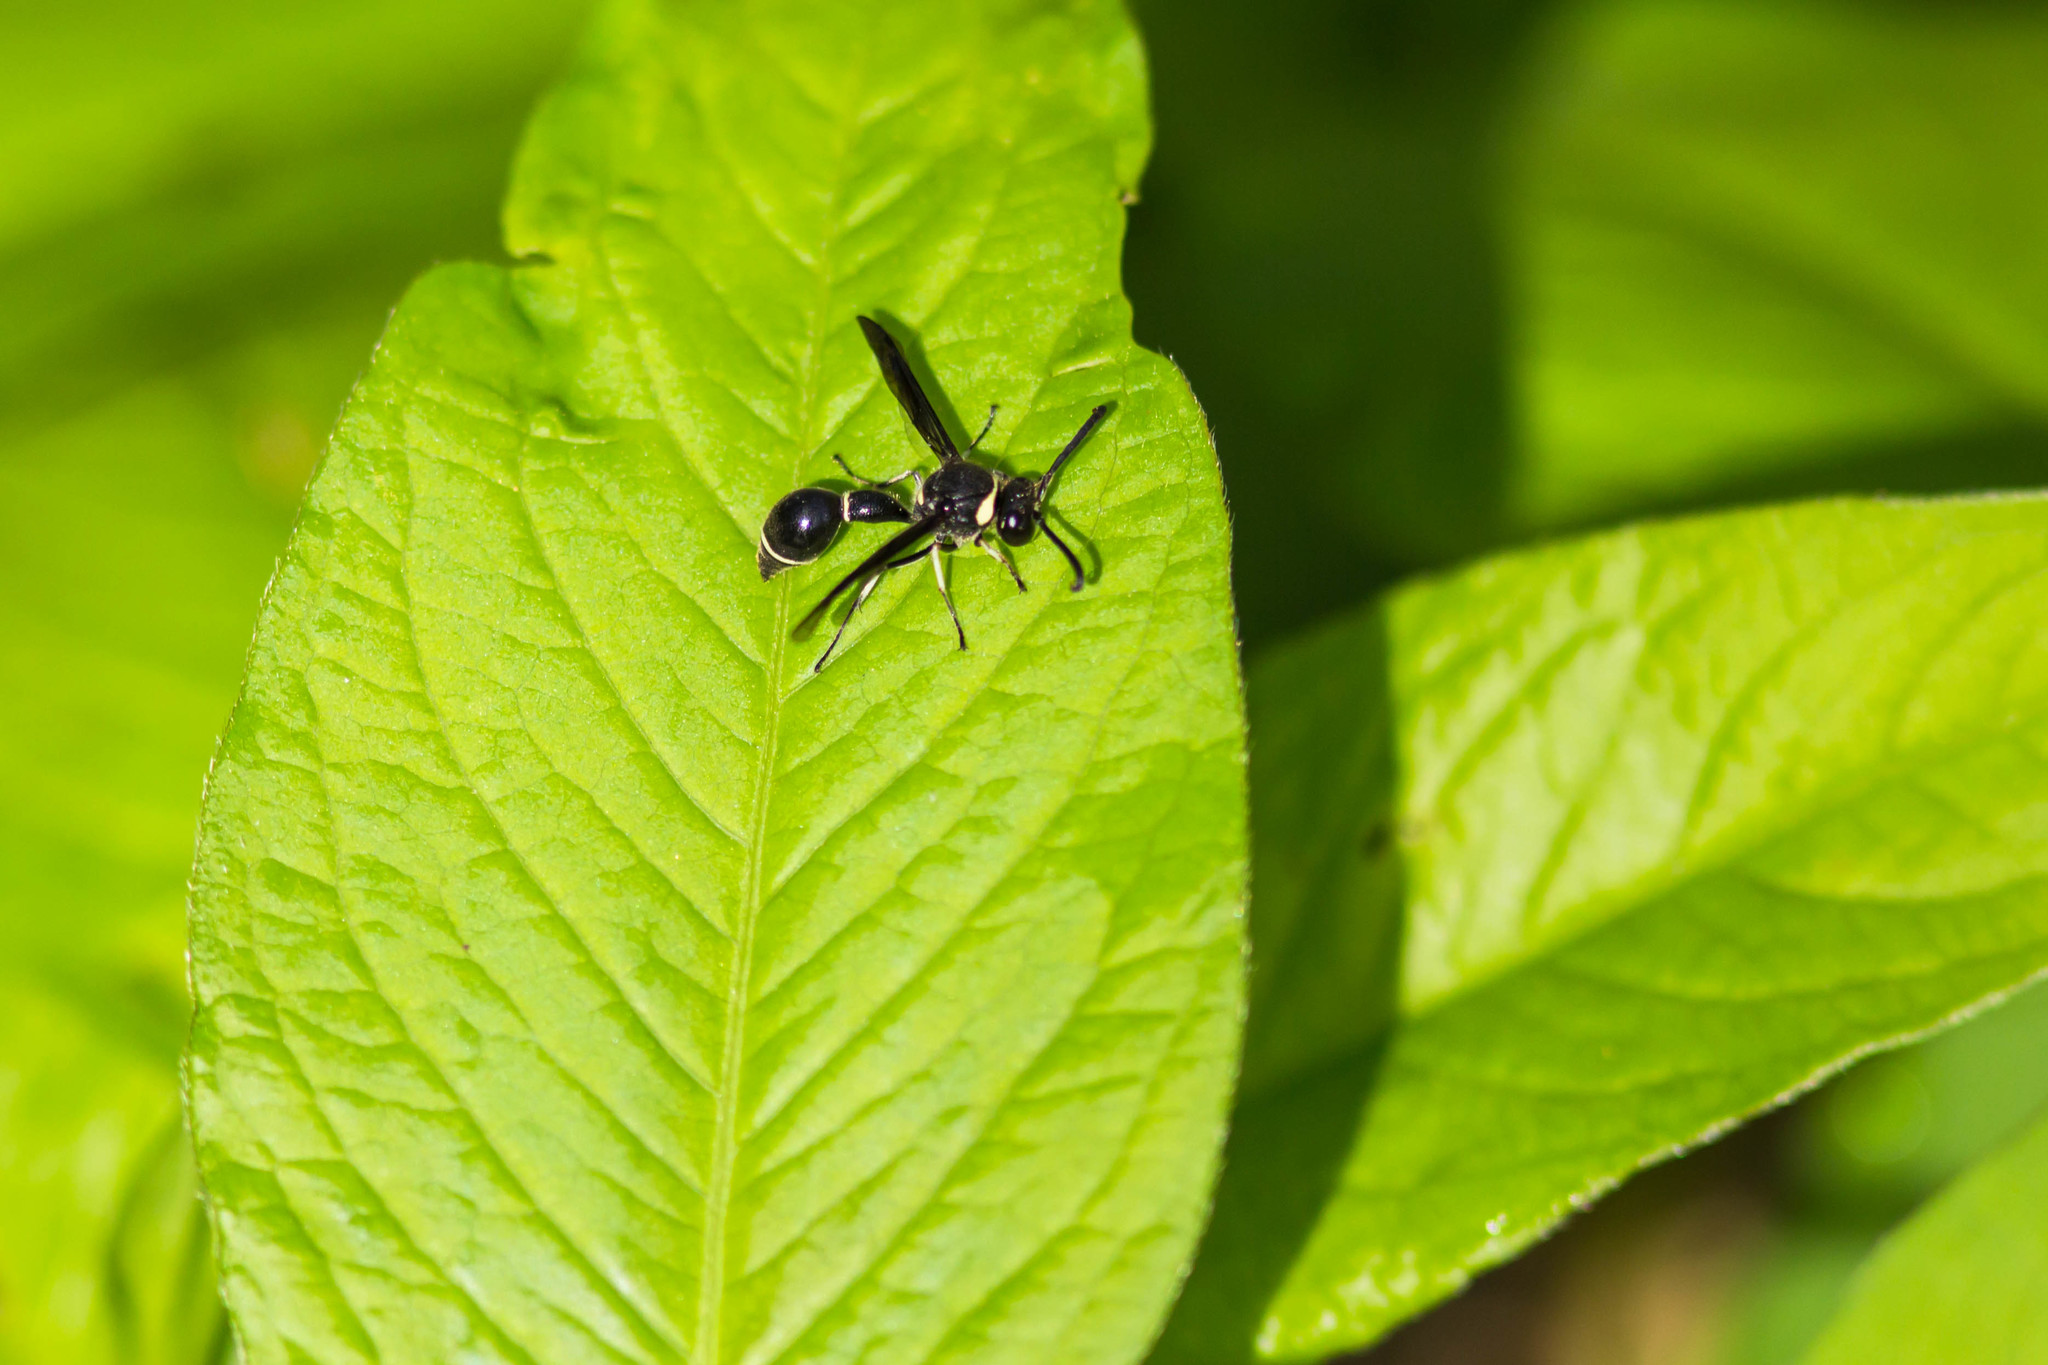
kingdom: Animalia
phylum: Arthropoda
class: Insecta
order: Hymenoptera
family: Vespidae
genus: Eumenes
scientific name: Eumenes fraternus
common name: Fraternal potter wasp
